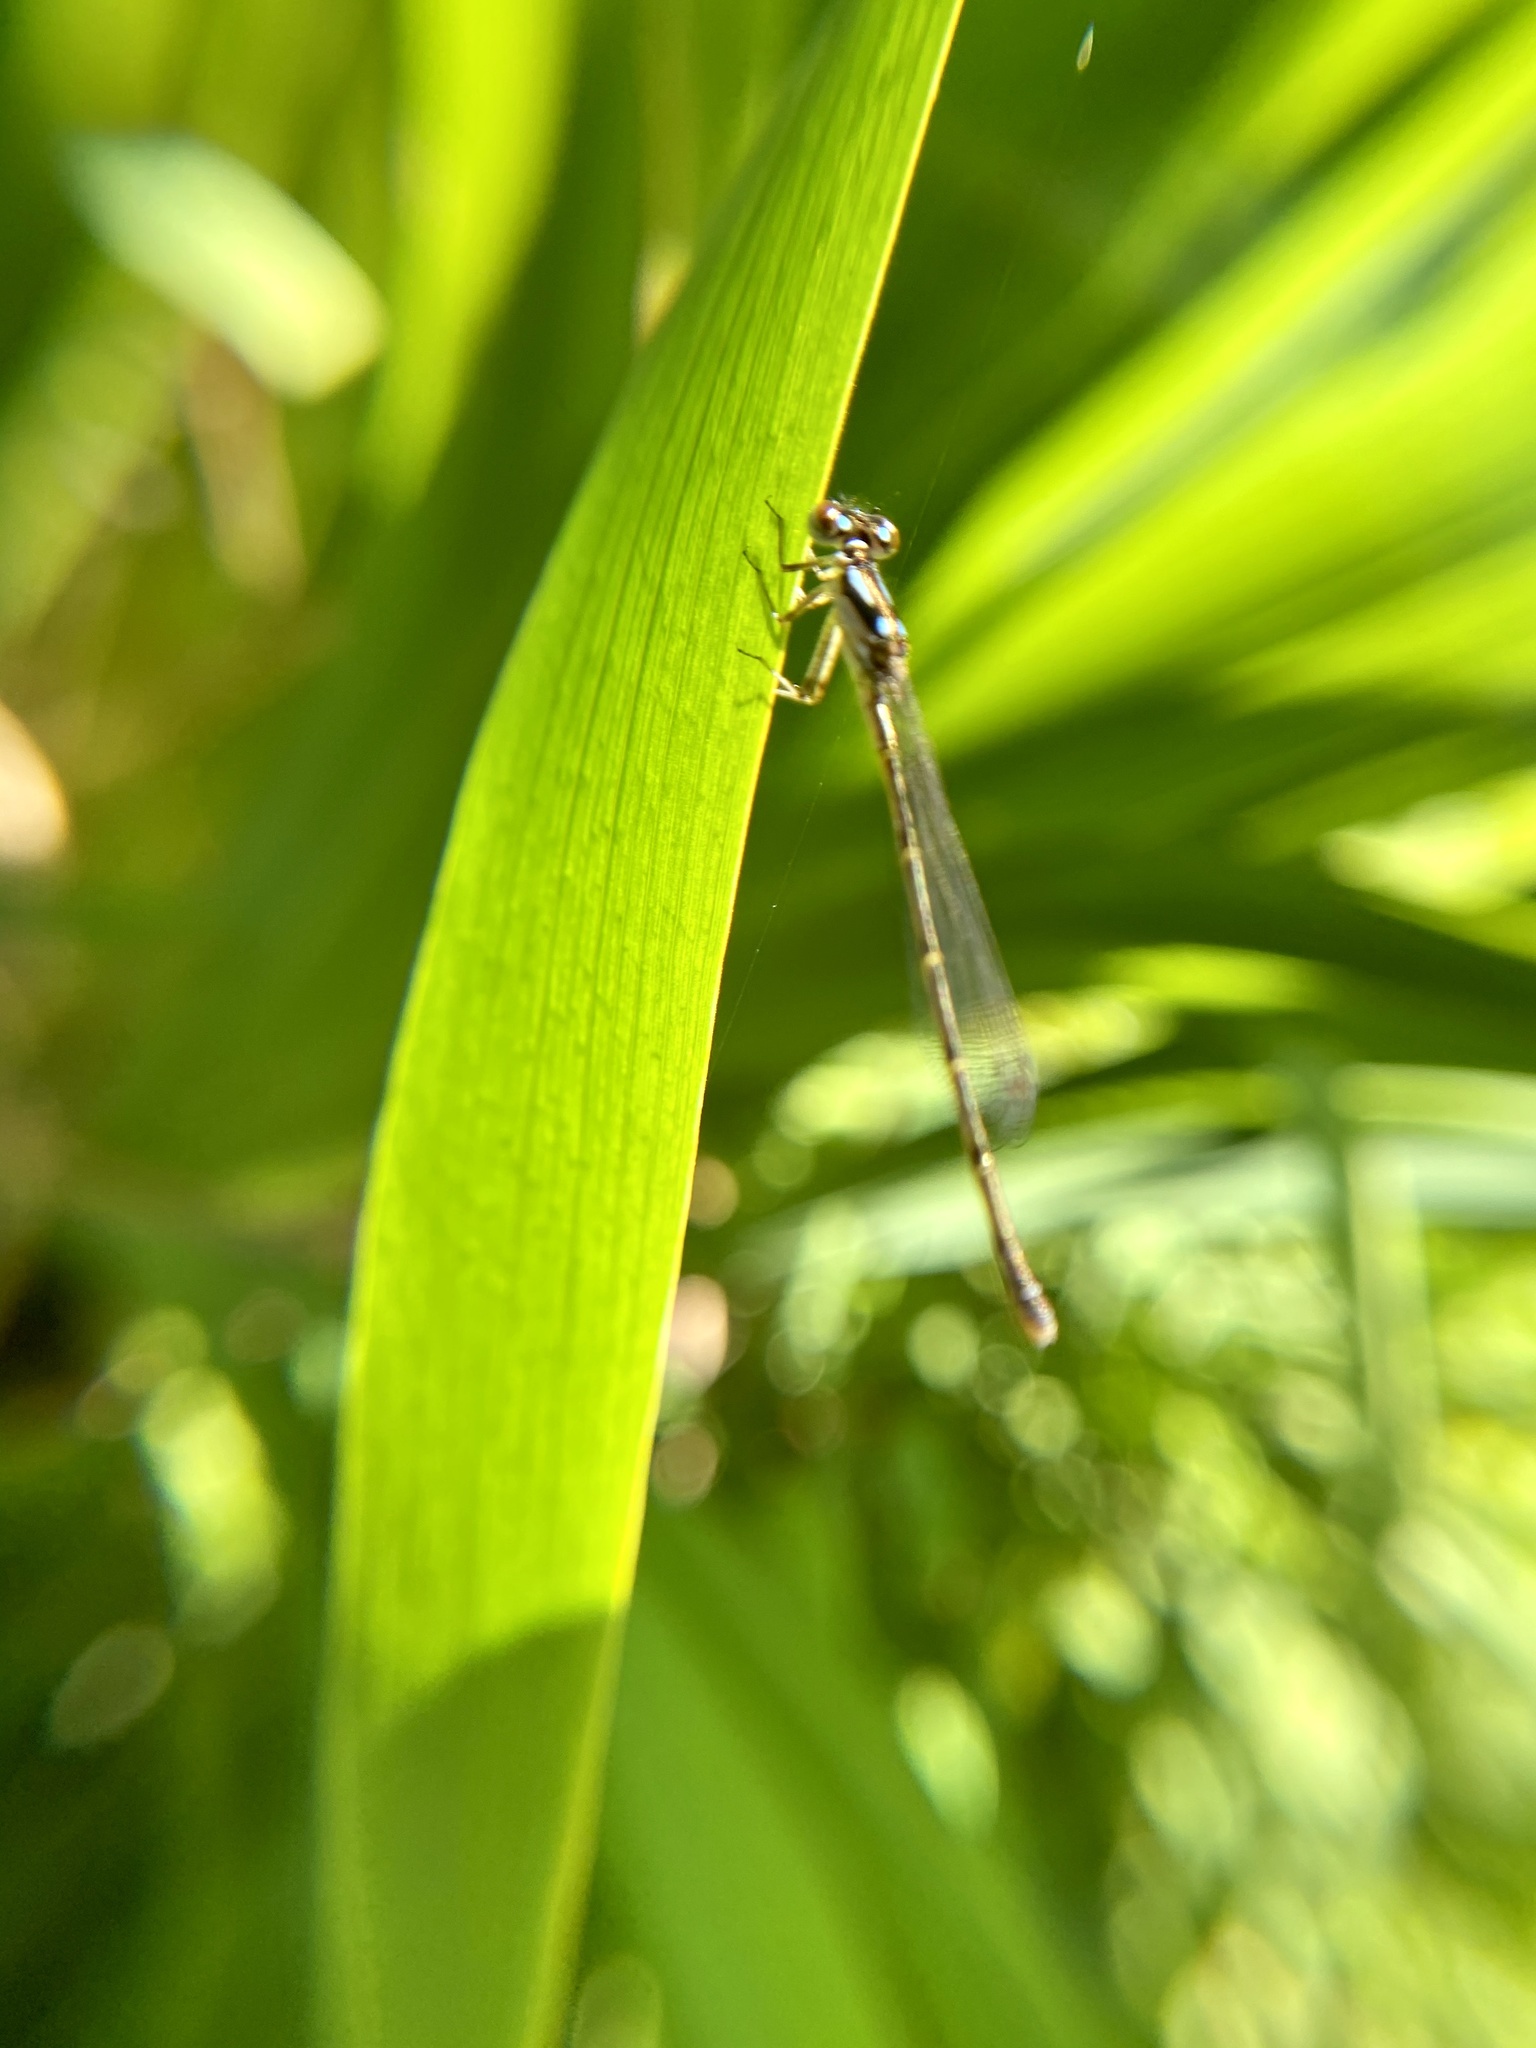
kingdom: Animalia
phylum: Arthropoda
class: Insecta
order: Odonata
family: Coenagrionidae
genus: Ischnura
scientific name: Ischnura posita
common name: Fragile forktail
